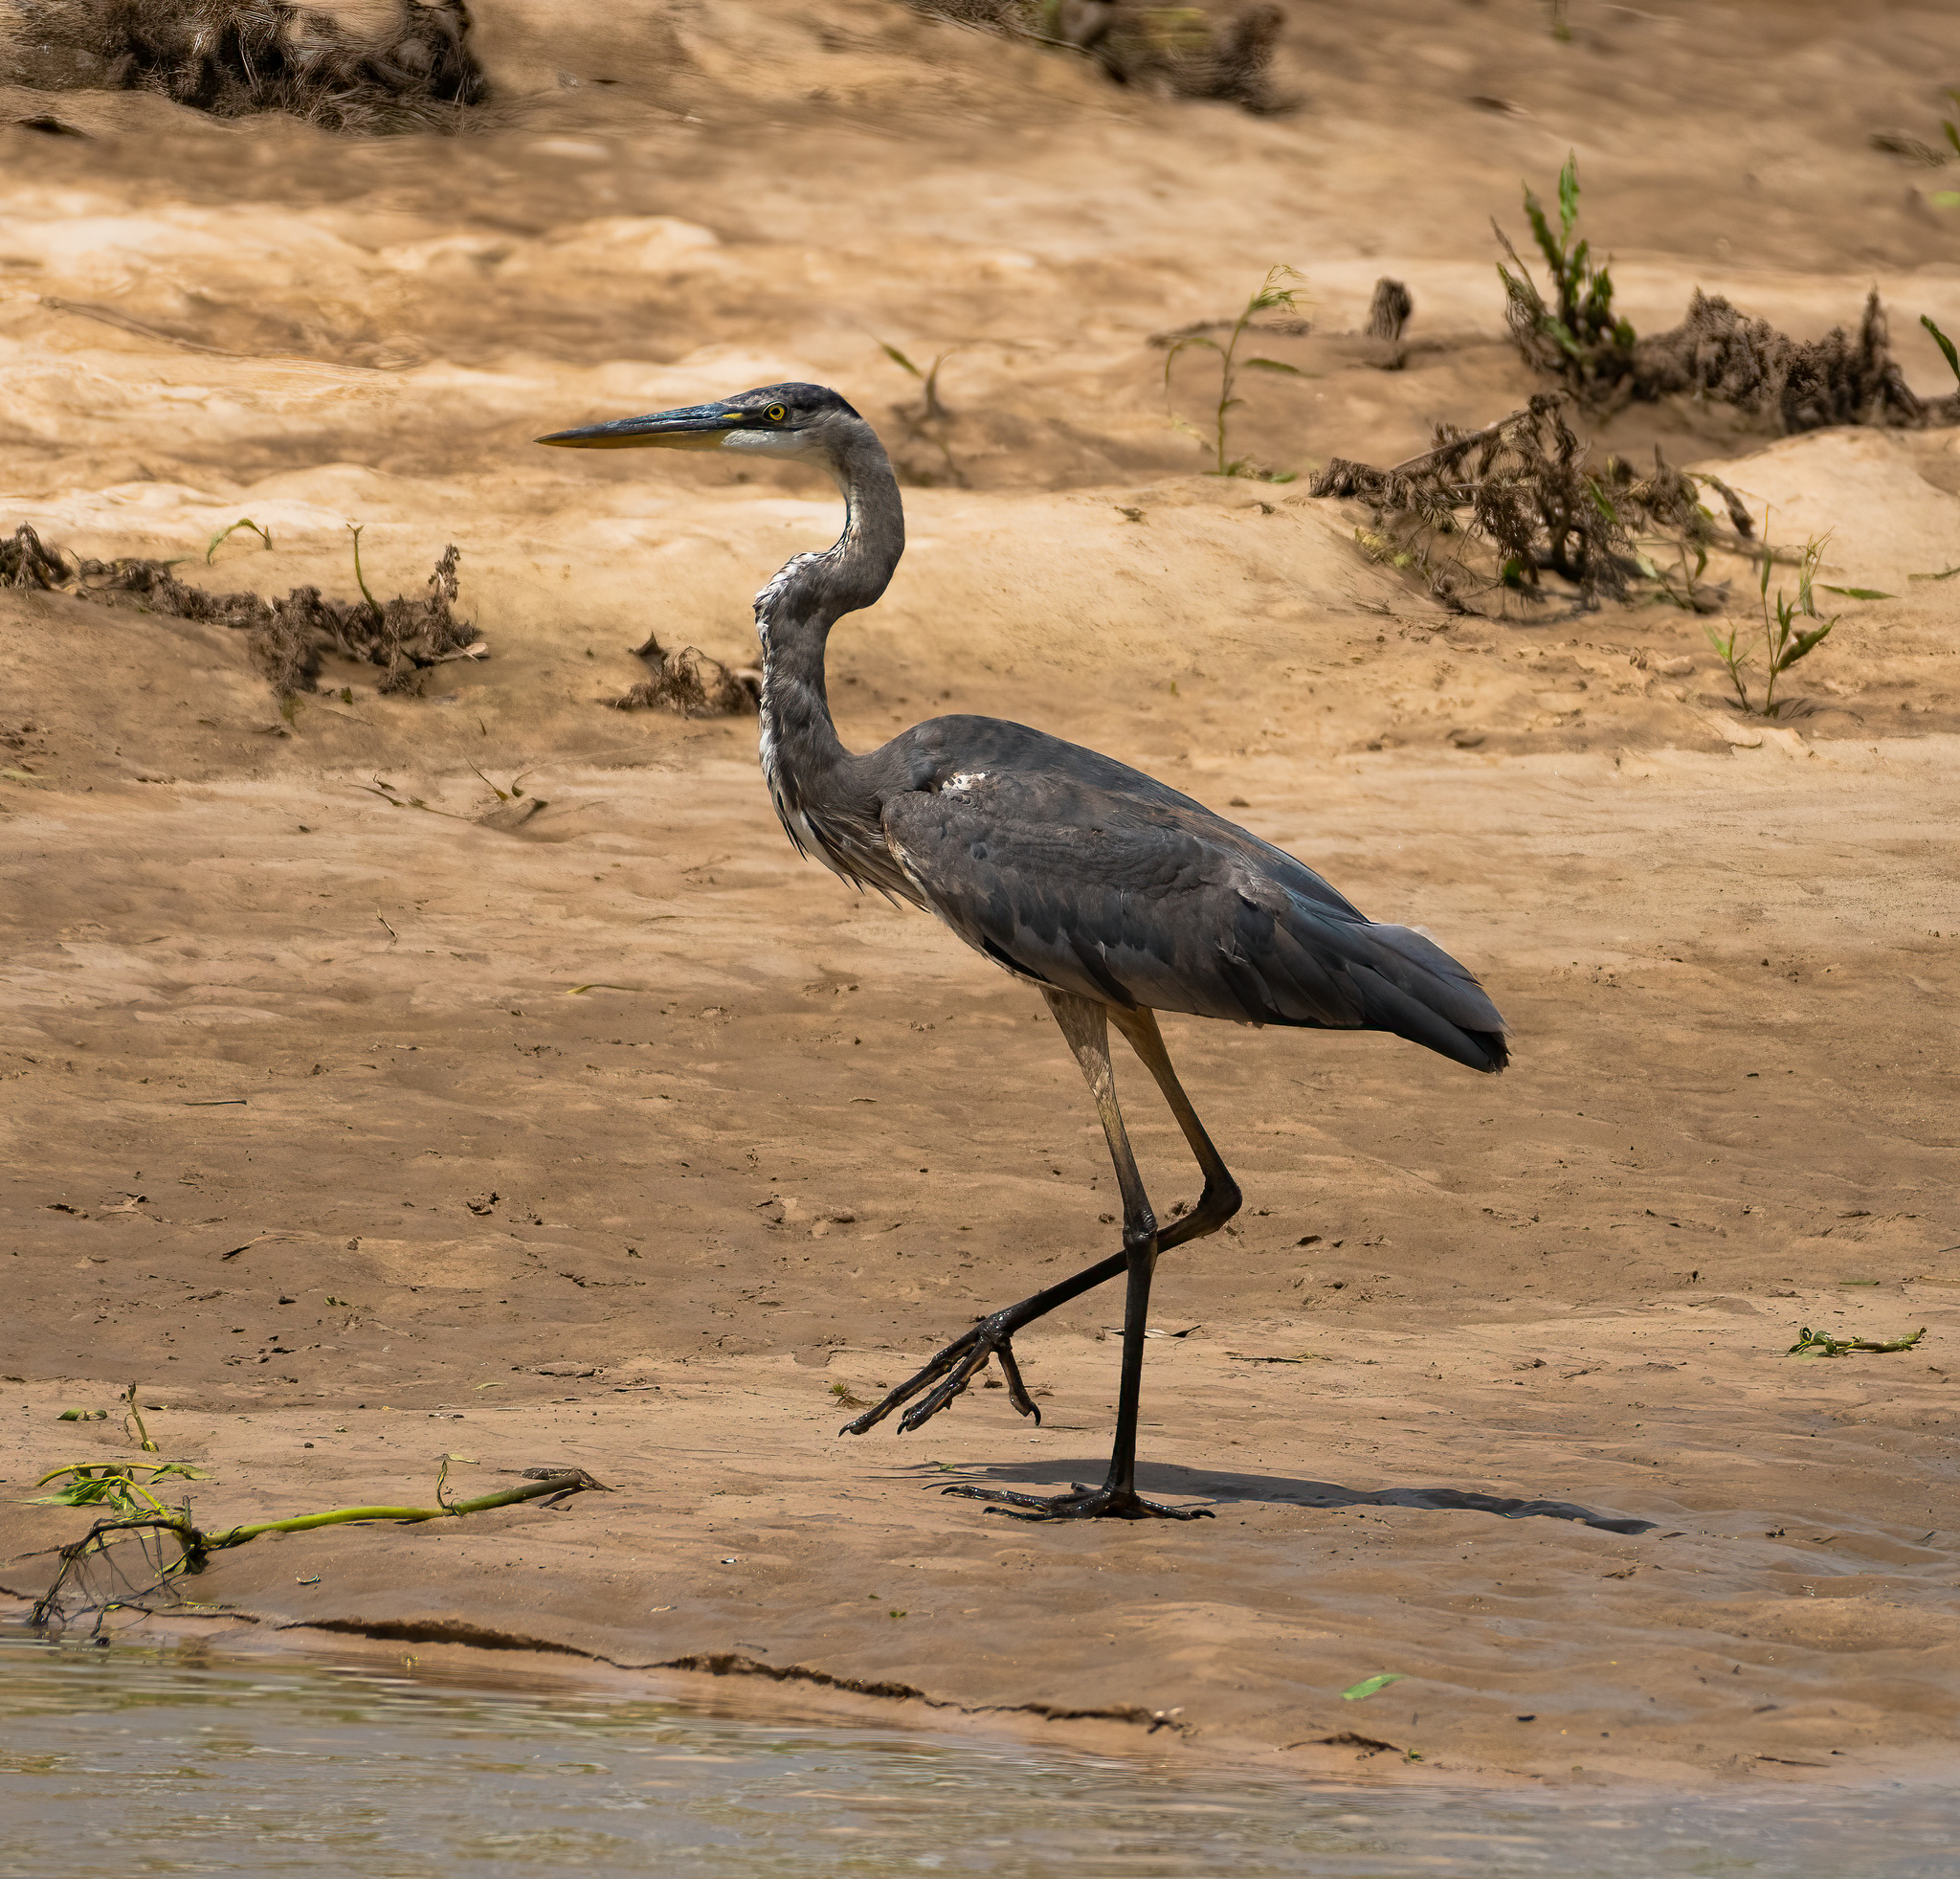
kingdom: Animalia
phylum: Chordata
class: Aves
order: Pelecaniformes
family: Ardeidae
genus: Ardea
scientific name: Ardea herodias
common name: Great blue heron
